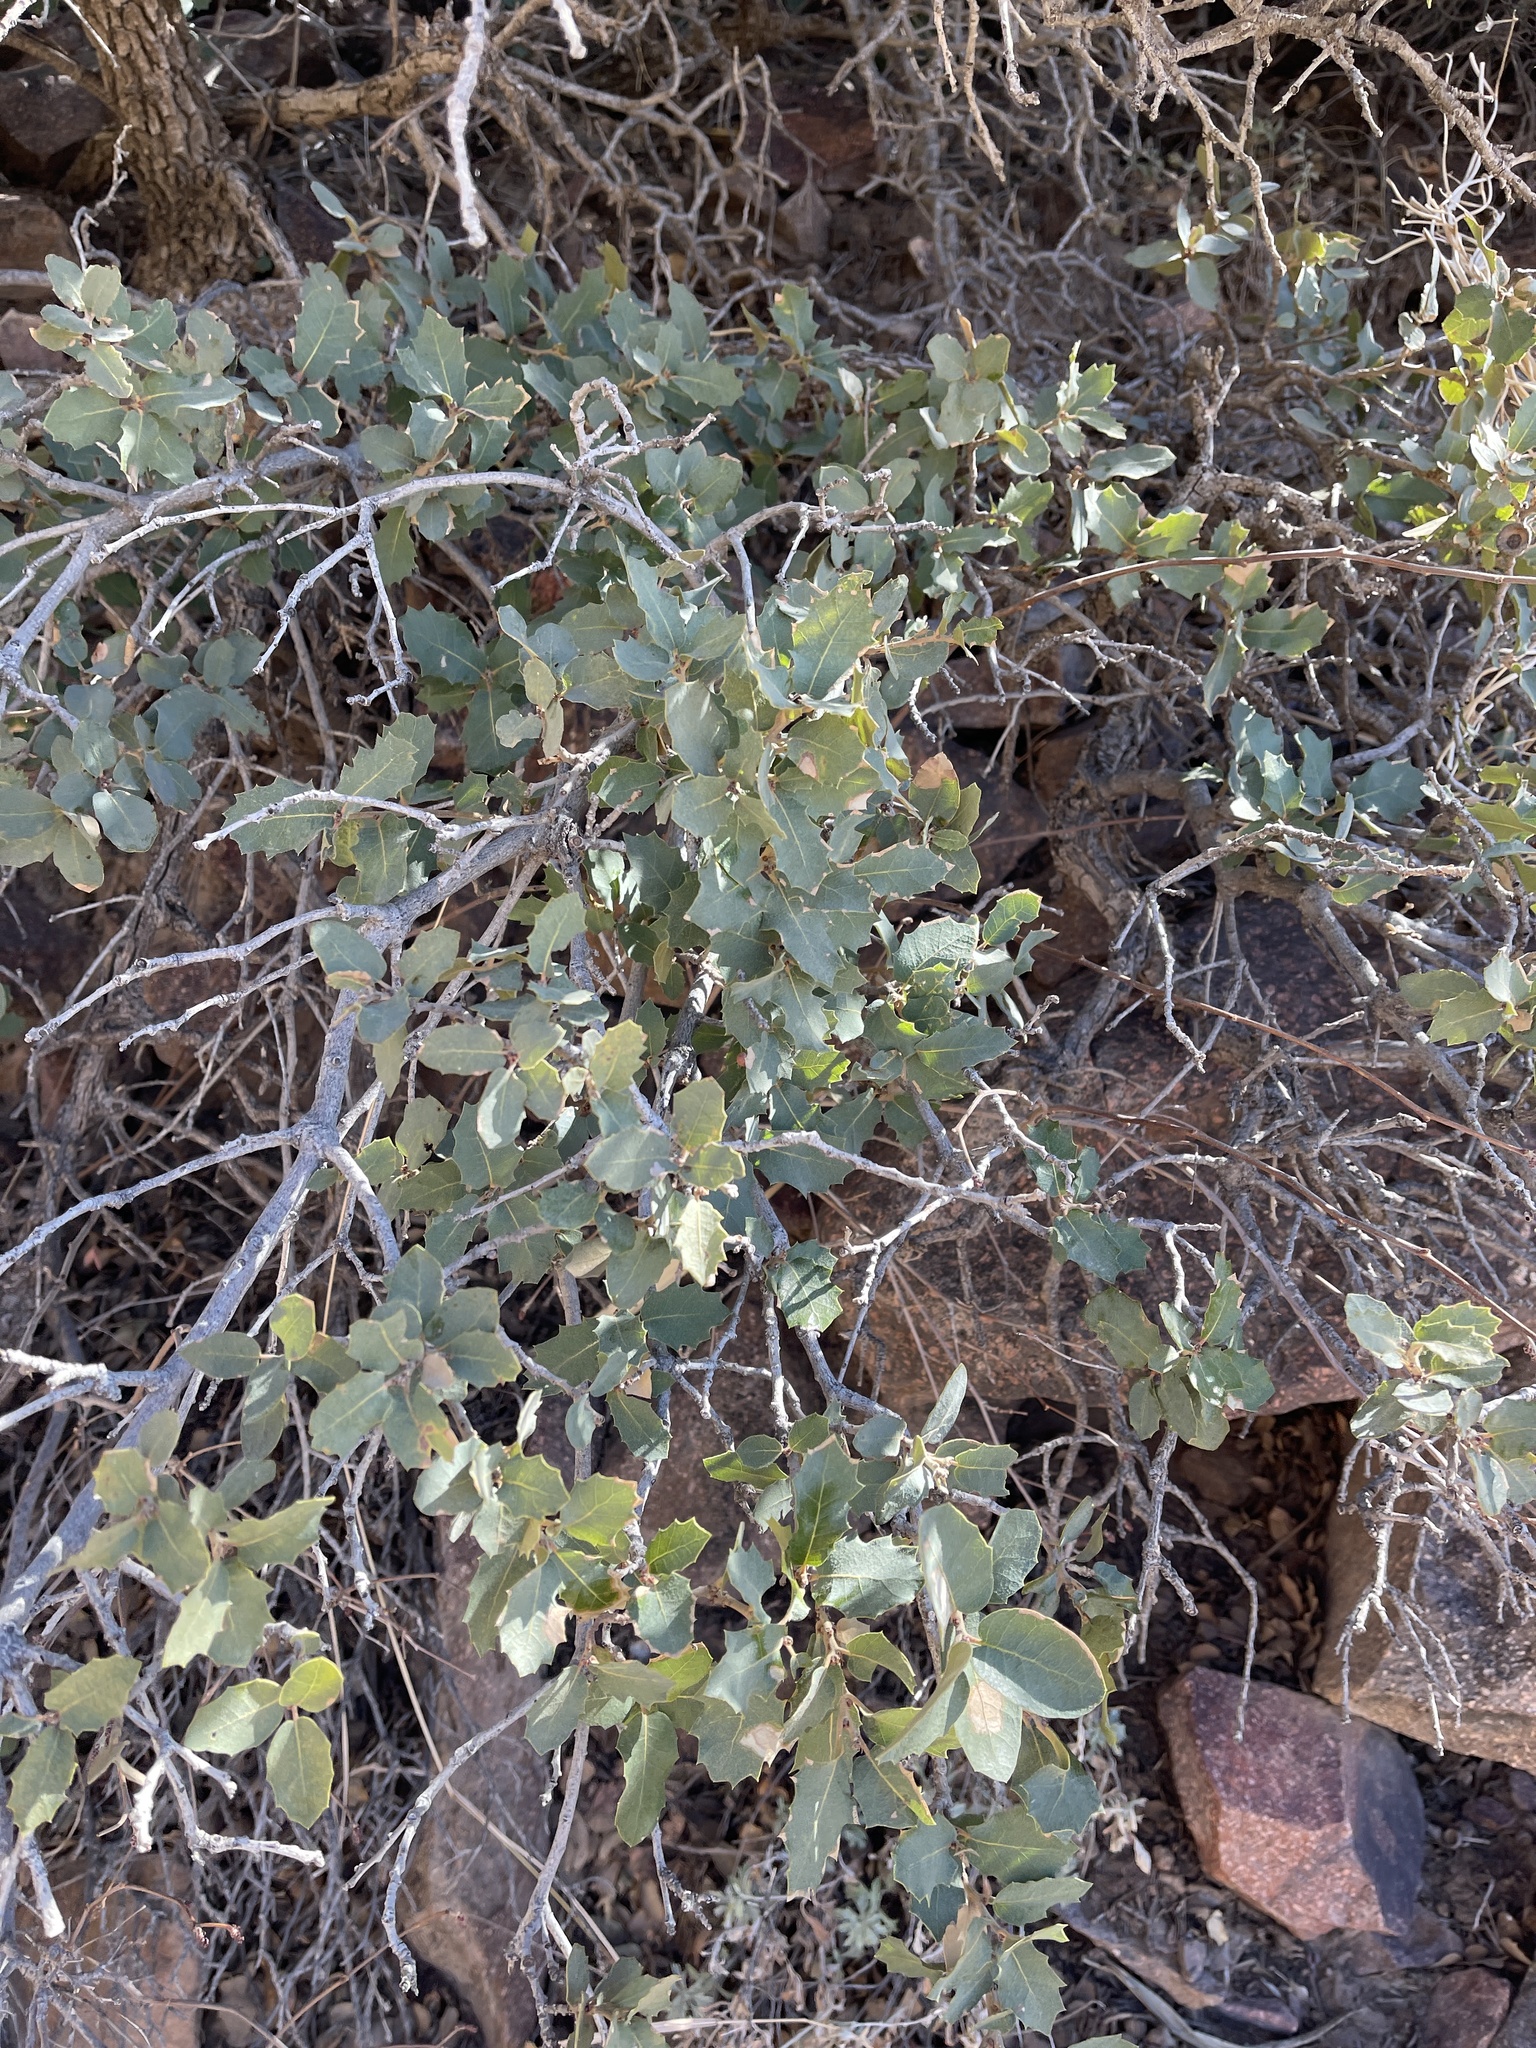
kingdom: Plantae
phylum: Tracheophyta
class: Magnoliopsida
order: Fagales
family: Fagaceae
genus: Quercus
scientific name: Quercus turbinella
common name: Sonoran scrub oak
